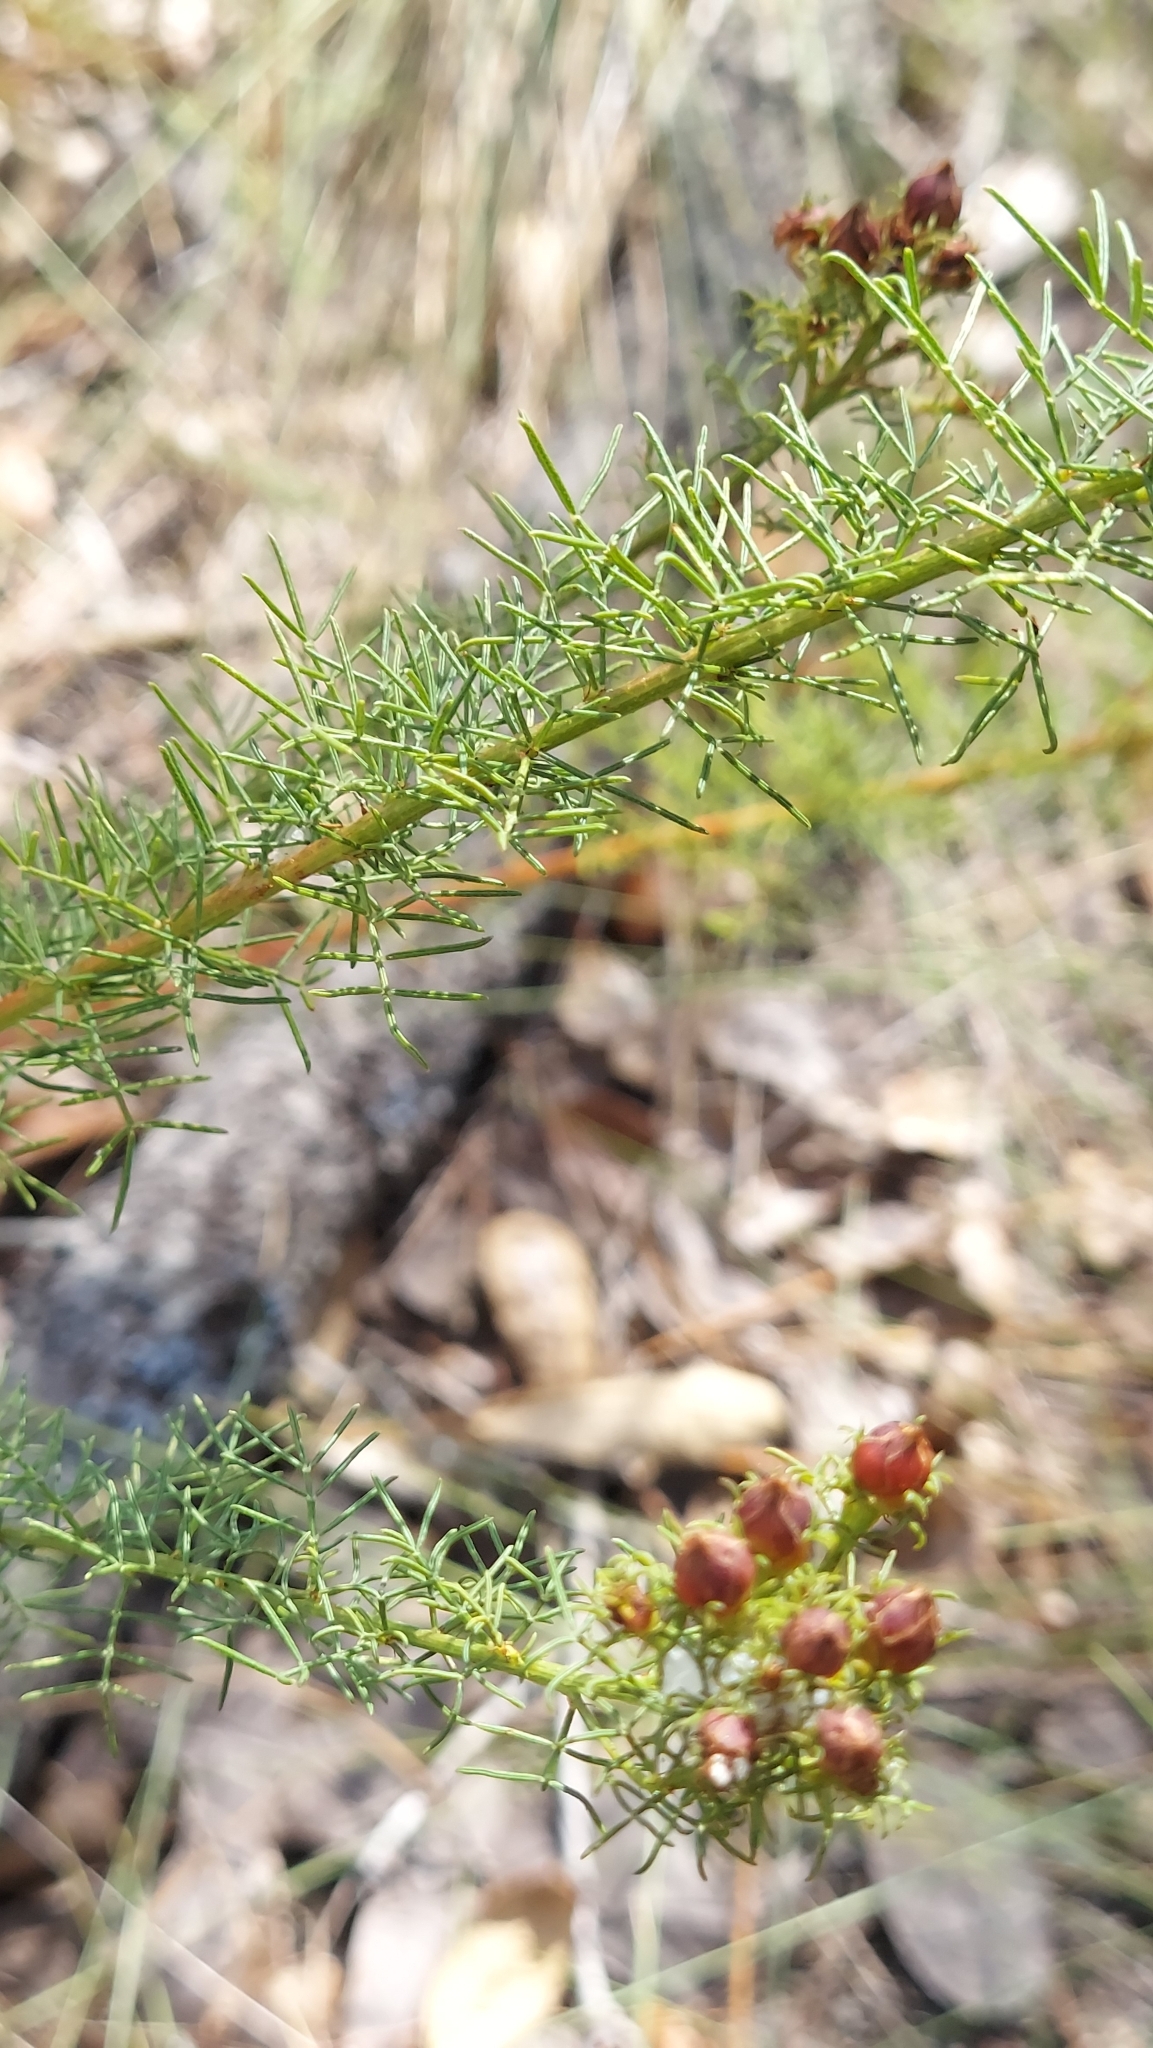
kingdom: Plantae
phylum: Tracheophyta
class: Magnoliopsida
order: Fabales
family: Fabaceae
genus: Dalea
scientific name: Dalea pinnata
